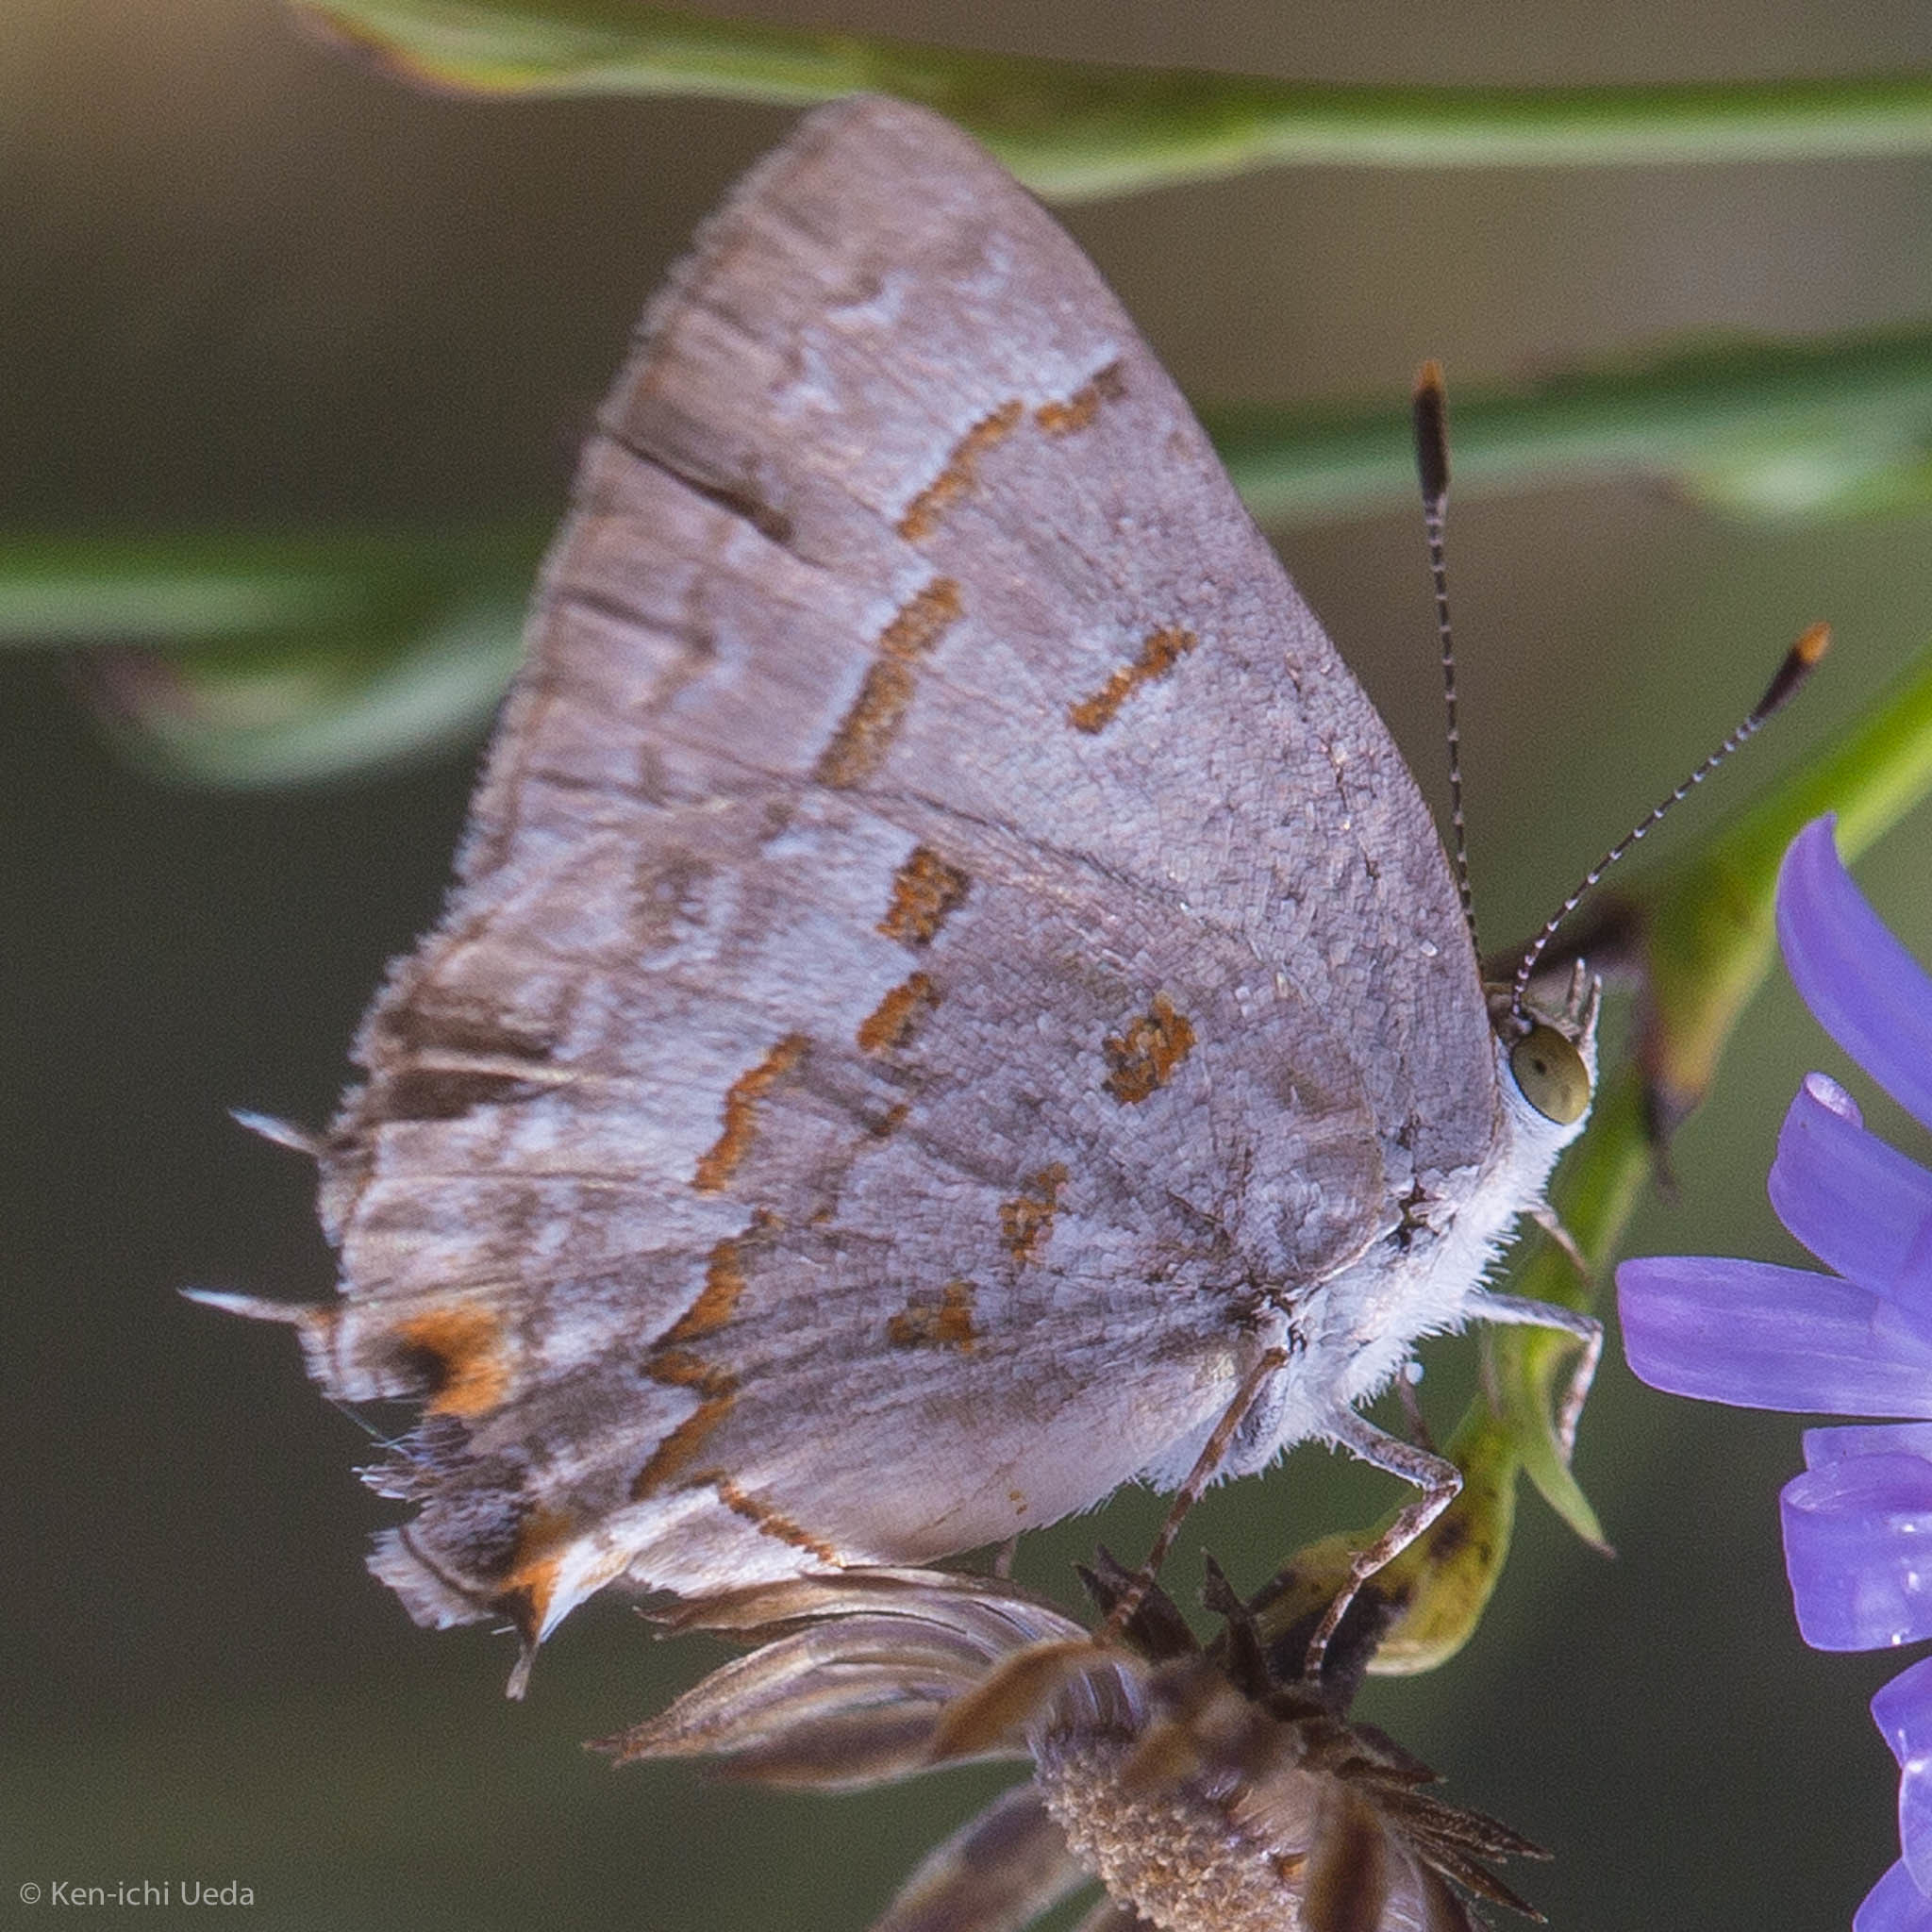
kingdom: Animalia
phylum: Arthropoda
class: Insecta
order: Lepidoptera
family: Lycaenidae
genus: Ministrymon
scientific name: Ministrymon clytie
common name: Clytie ministreak
